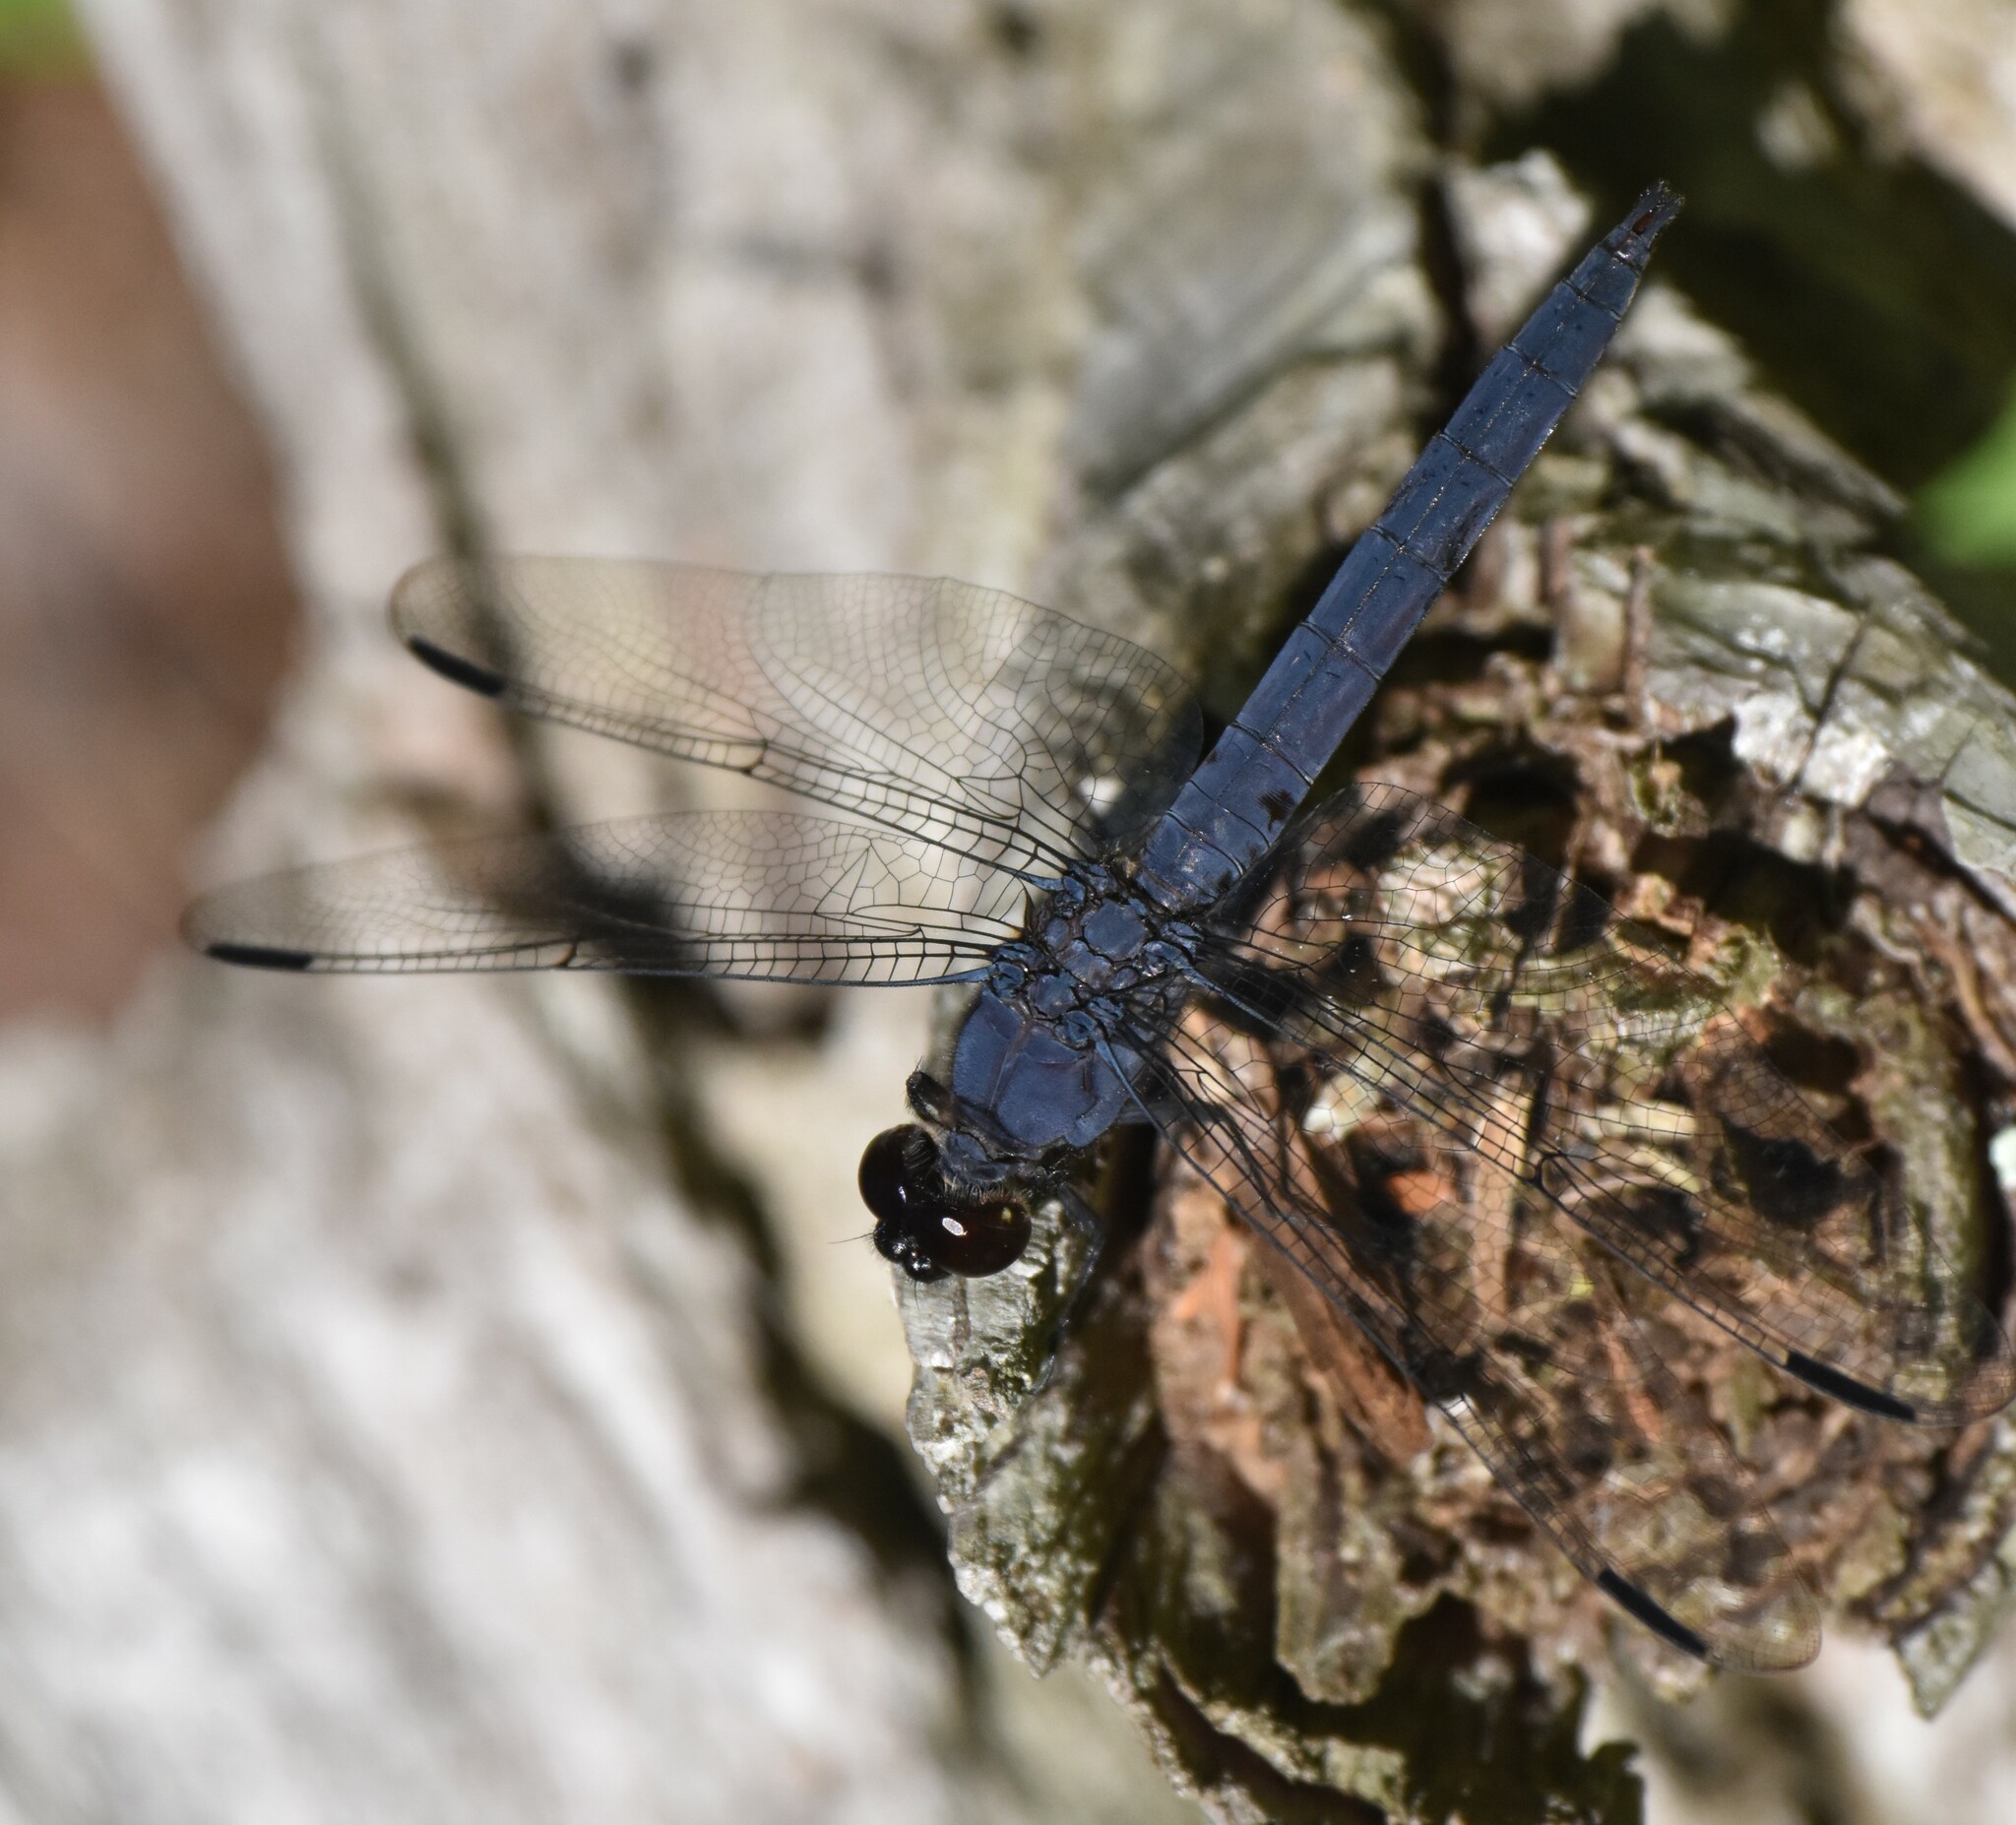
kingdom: Animalia
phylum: Arthropoda
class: Insecta
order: Odonata
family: Libellulidae
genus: Libellula
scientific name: Libellula incesta
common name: Slaty skimmer
